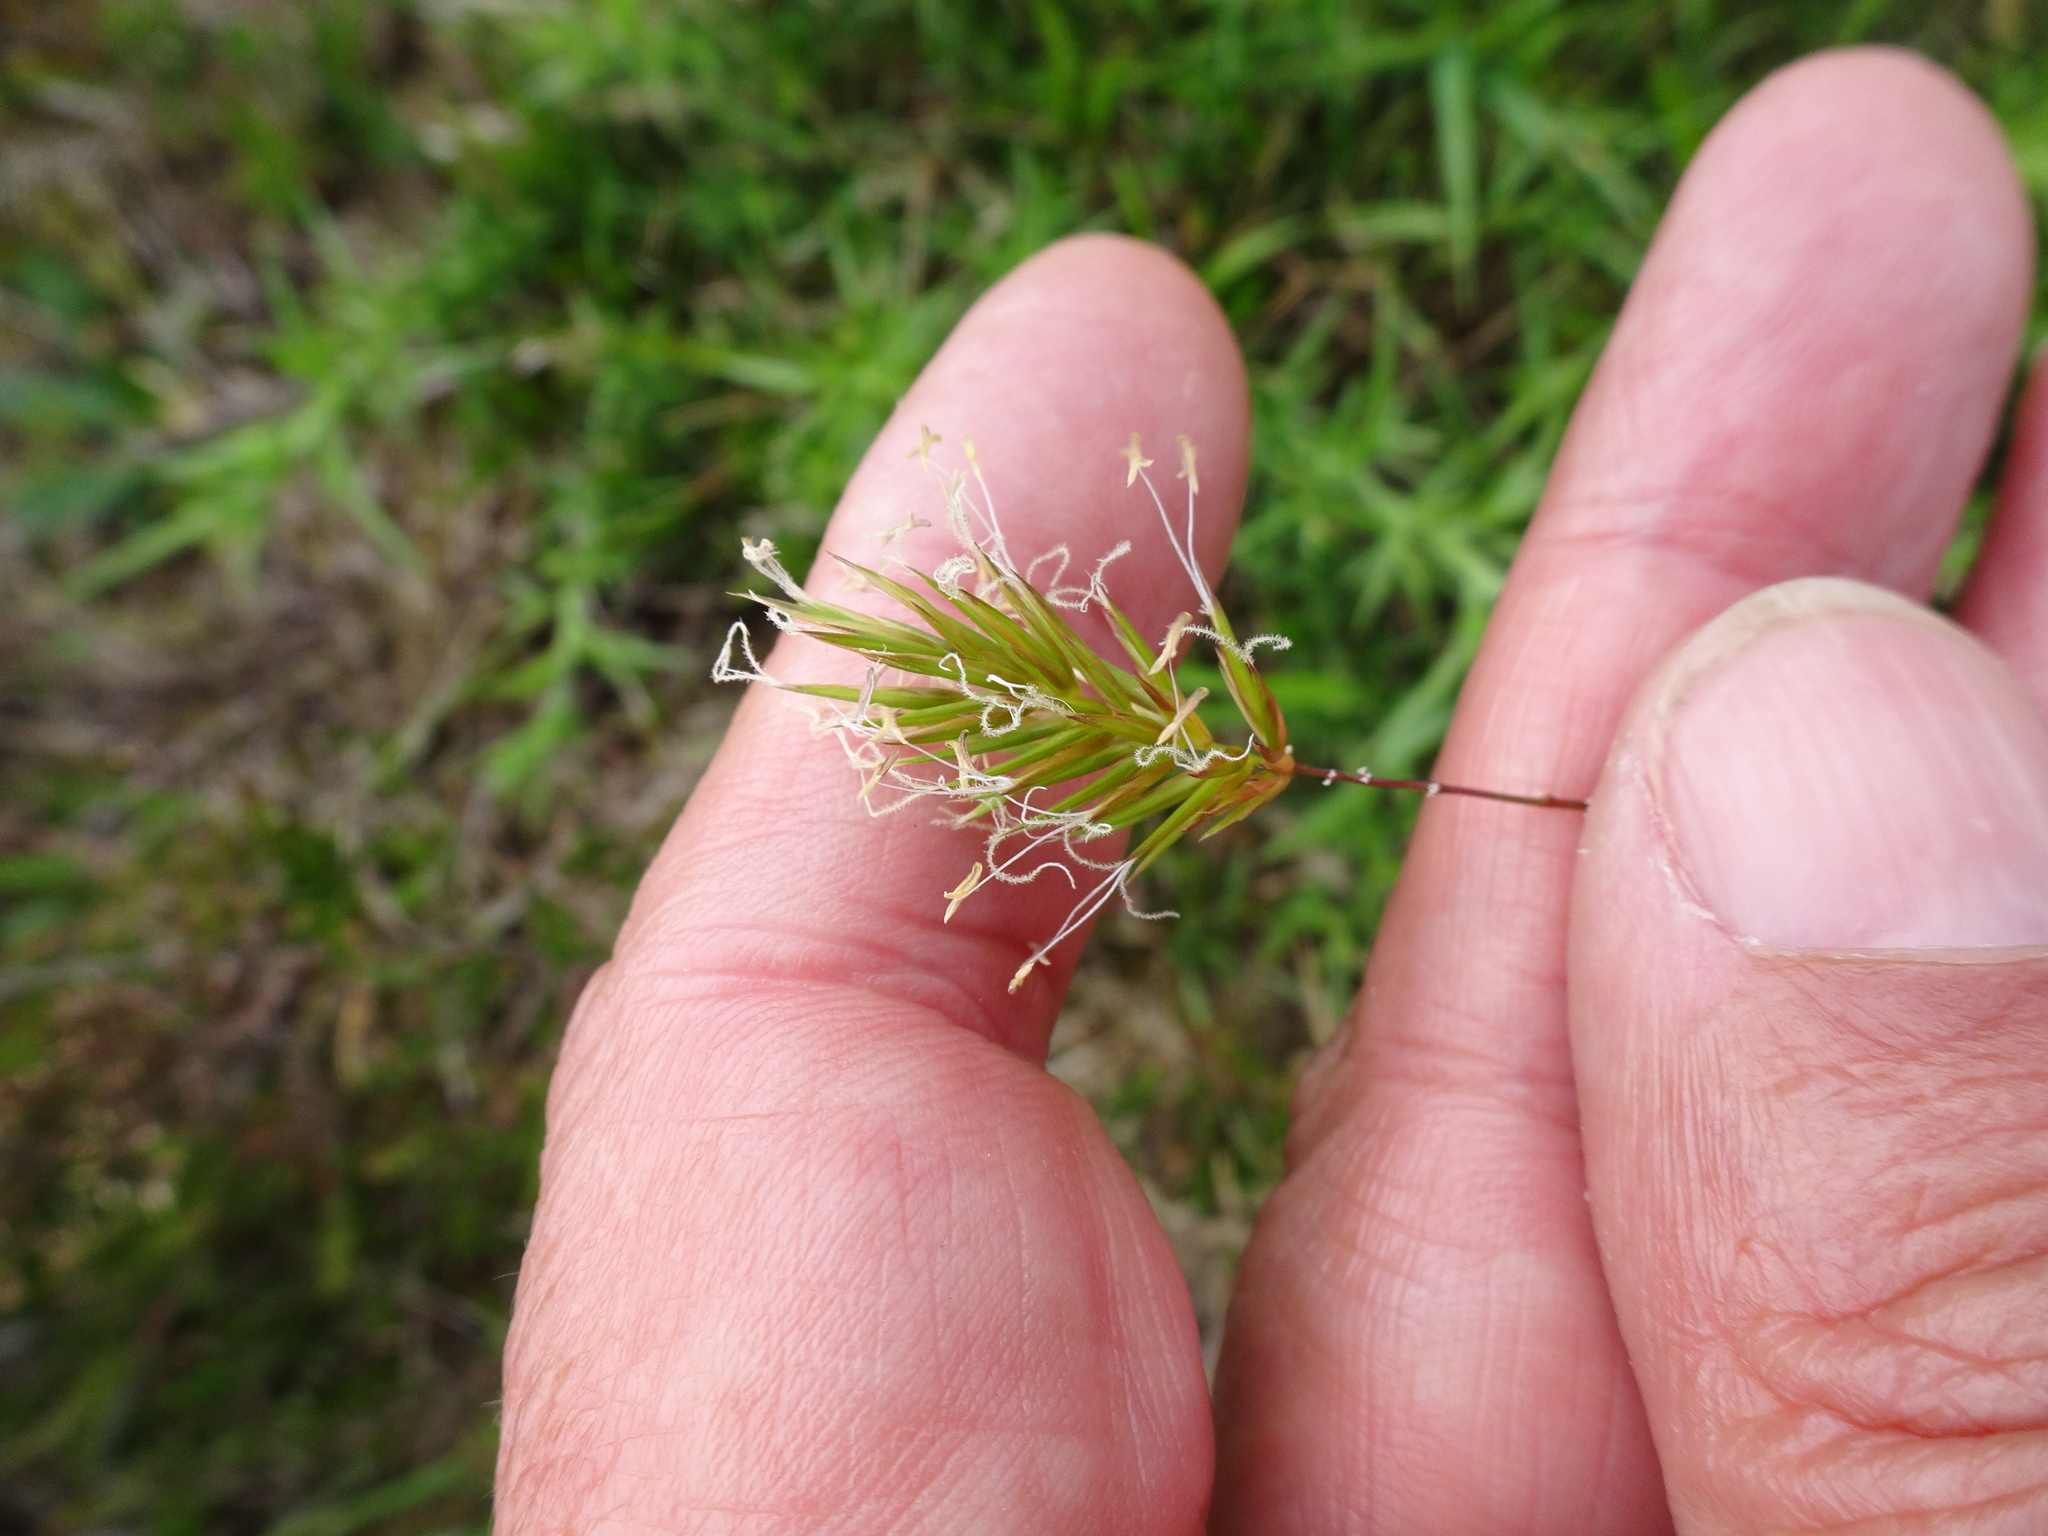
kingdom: Plantae
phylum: Tracheophyta
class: Liliopsida
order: Poales
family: Poaceae
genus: Anthoxanthum
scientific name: Anthoxanthum odoratum
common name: Sweet vernalgrass
